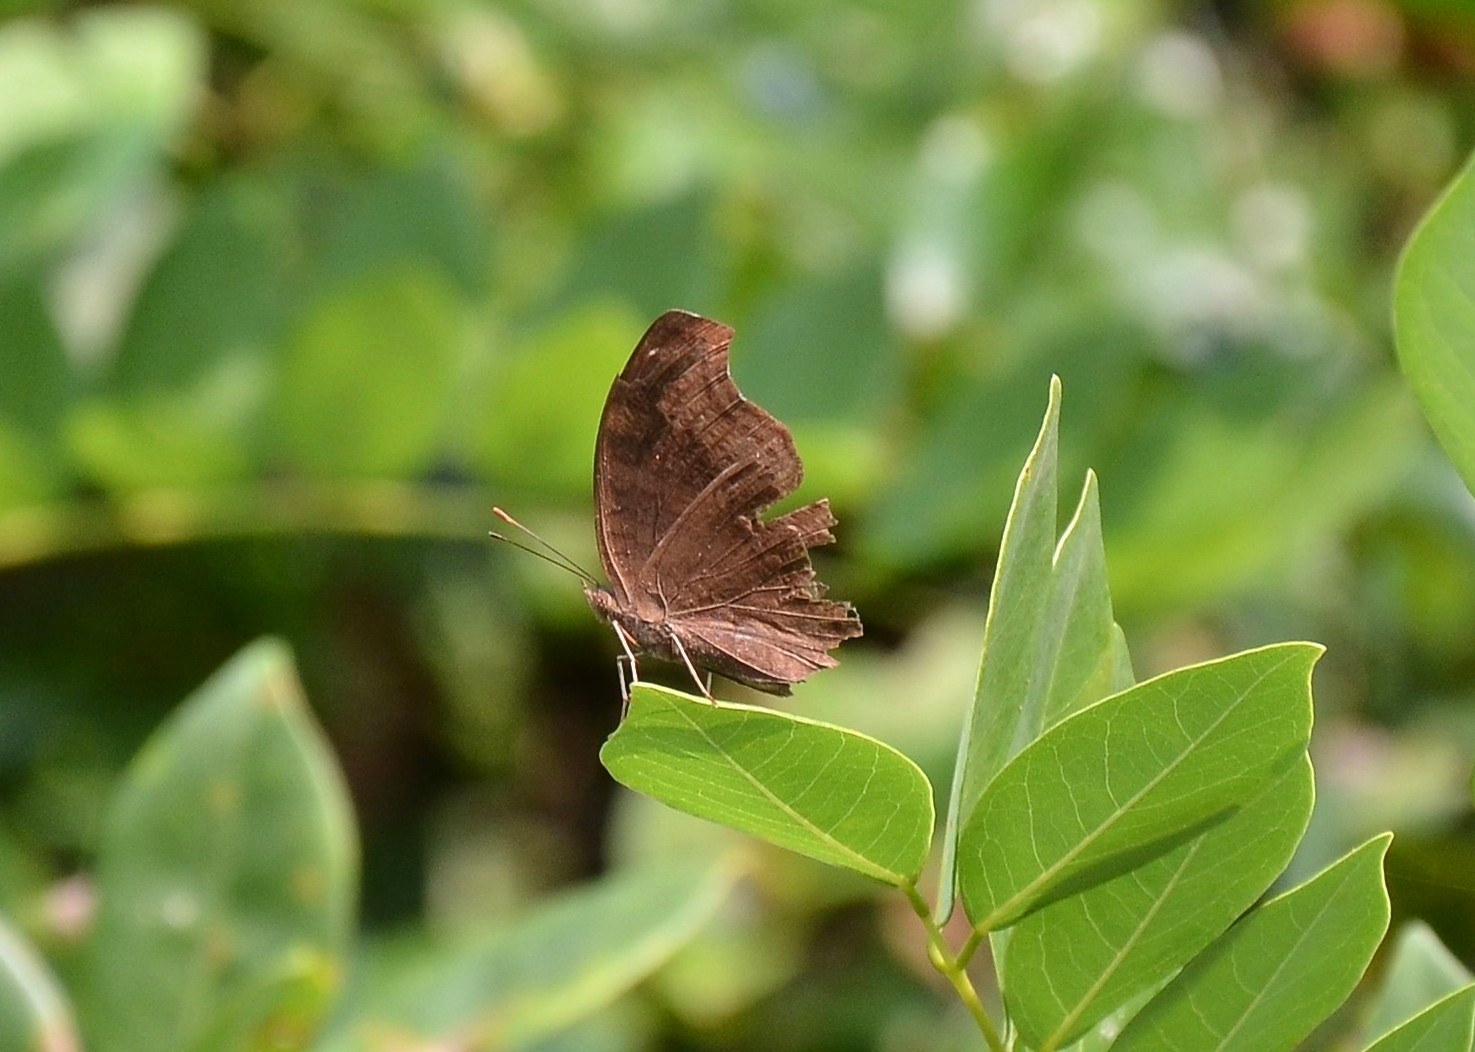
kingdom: Animalia
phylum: Arthropoda
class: Insecta
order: Lepidoptera
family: Nymphalidae
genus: Junonia
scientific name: Junonia iphita
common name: Chocolate pansy
